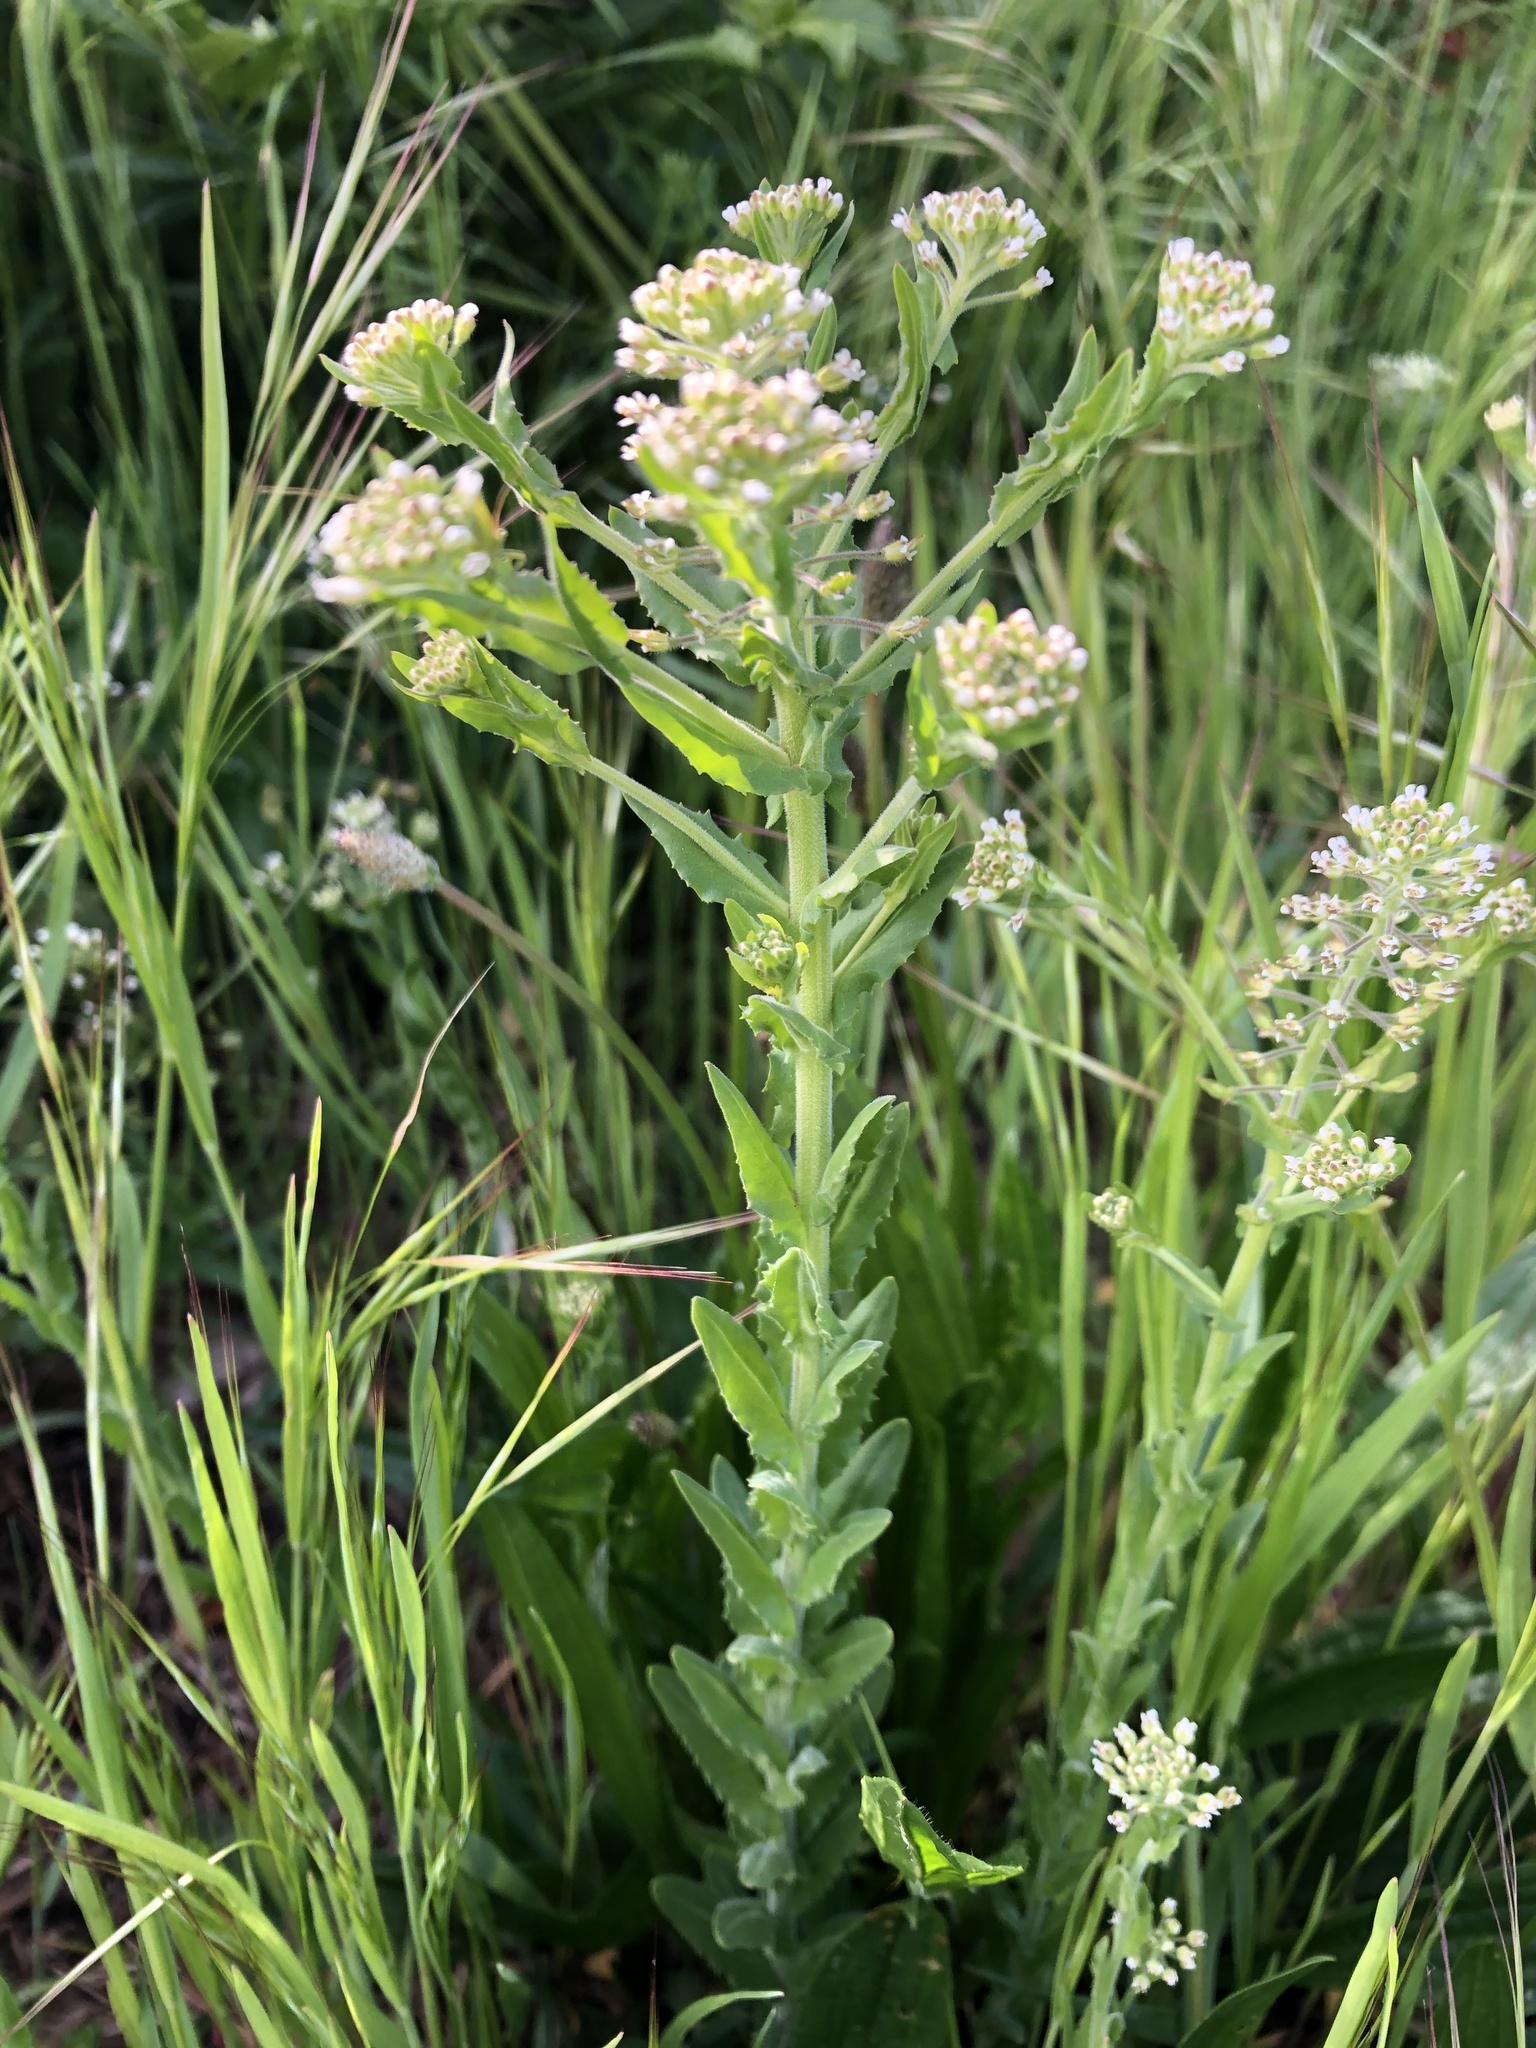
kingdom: Plantae
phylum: Tracheophyta
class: Magnoliopsida
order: Brassicales
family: Brassicaceae
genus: Lepidium
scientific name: Lepidium campestre
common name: Field pepperwort
